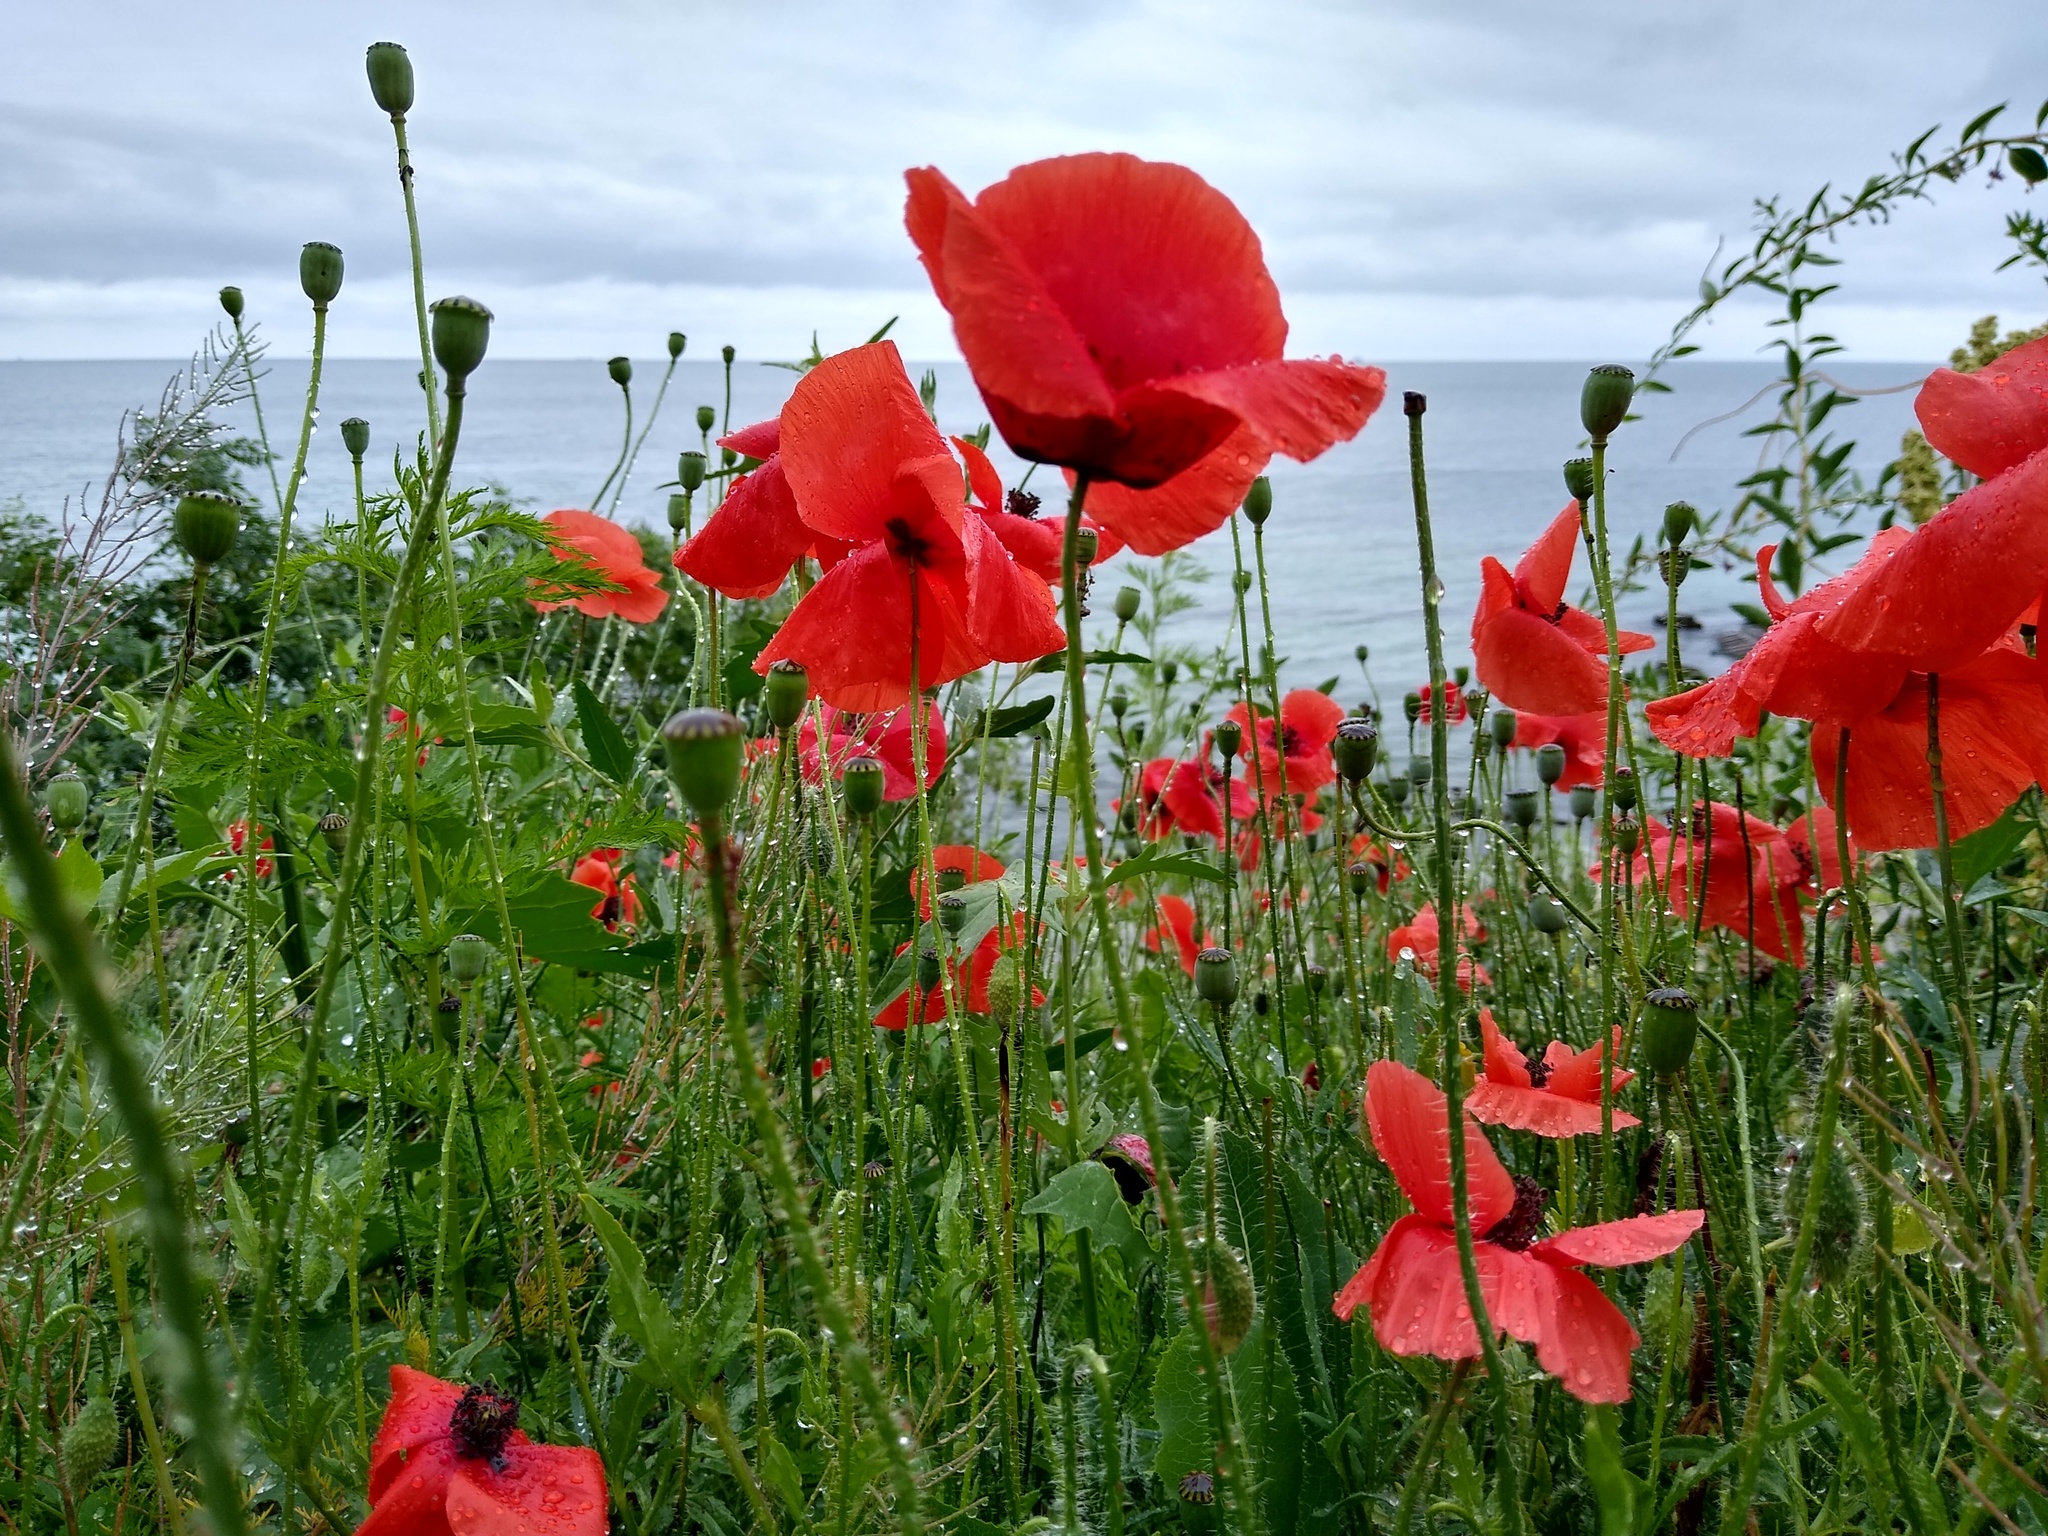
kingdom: Plantae
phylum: Tracheophyta
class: Magnoliopsida
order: Ranunculales
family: Papaveraceae
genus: Papaver
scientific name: Papaver rhoeas
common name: Corn poppy
